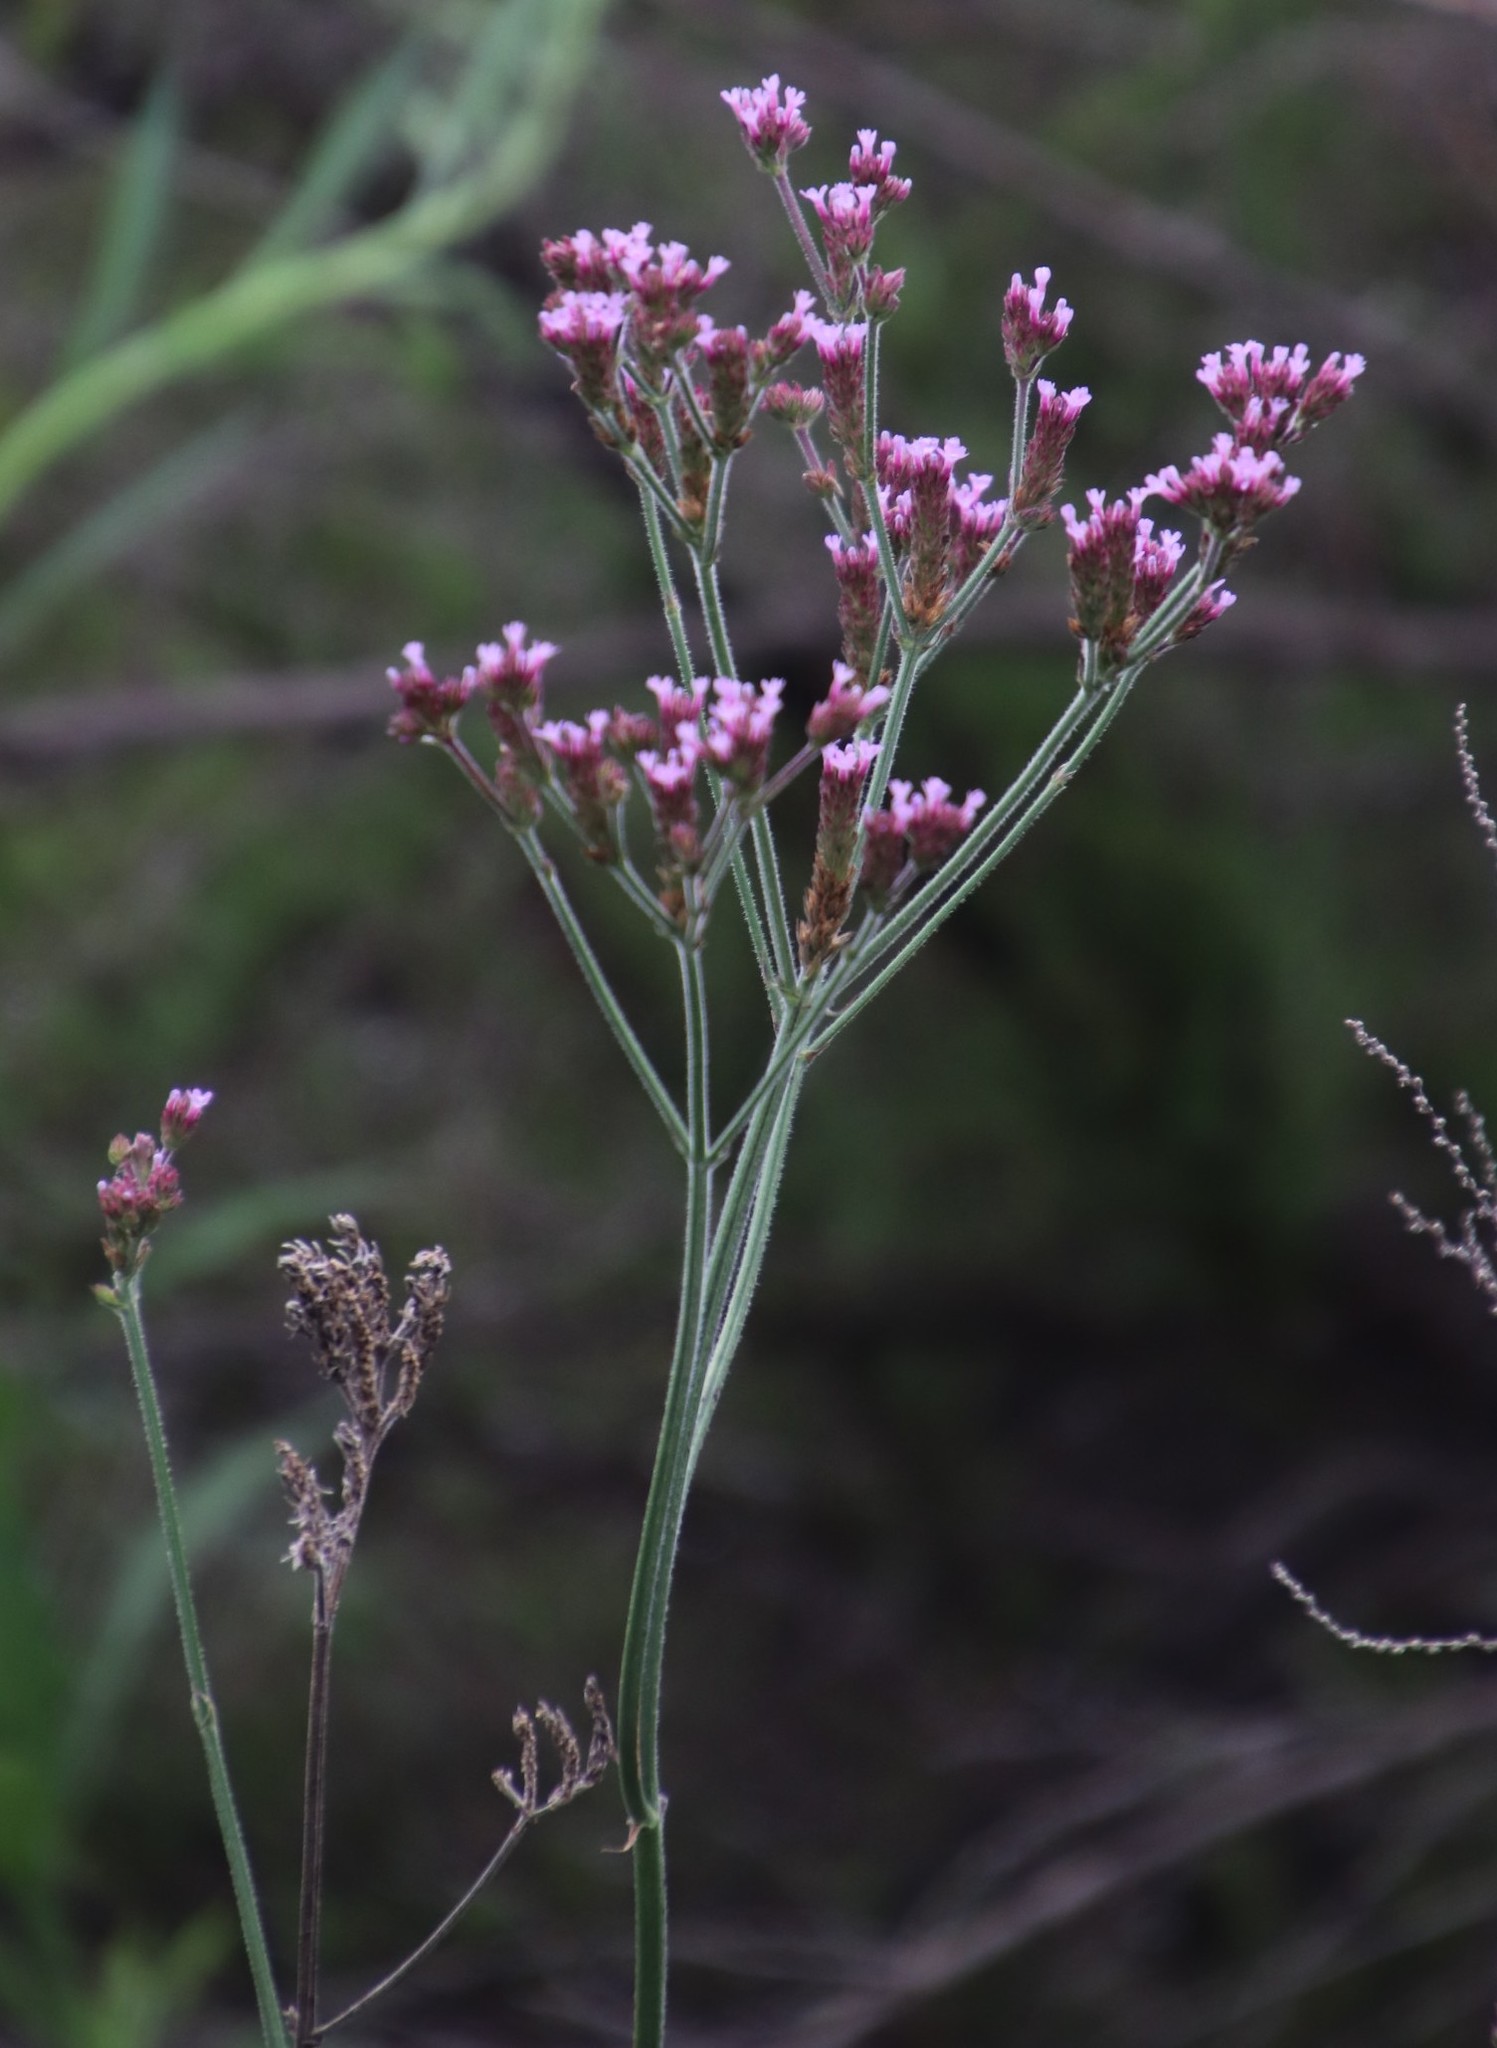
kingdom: Plantae
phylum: Tracheophyta
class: Magnoliopsida
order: Lamiales
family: Verbenaceae
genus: Verbena
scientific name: Verbena bonariensis
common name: Purpletop vervain
